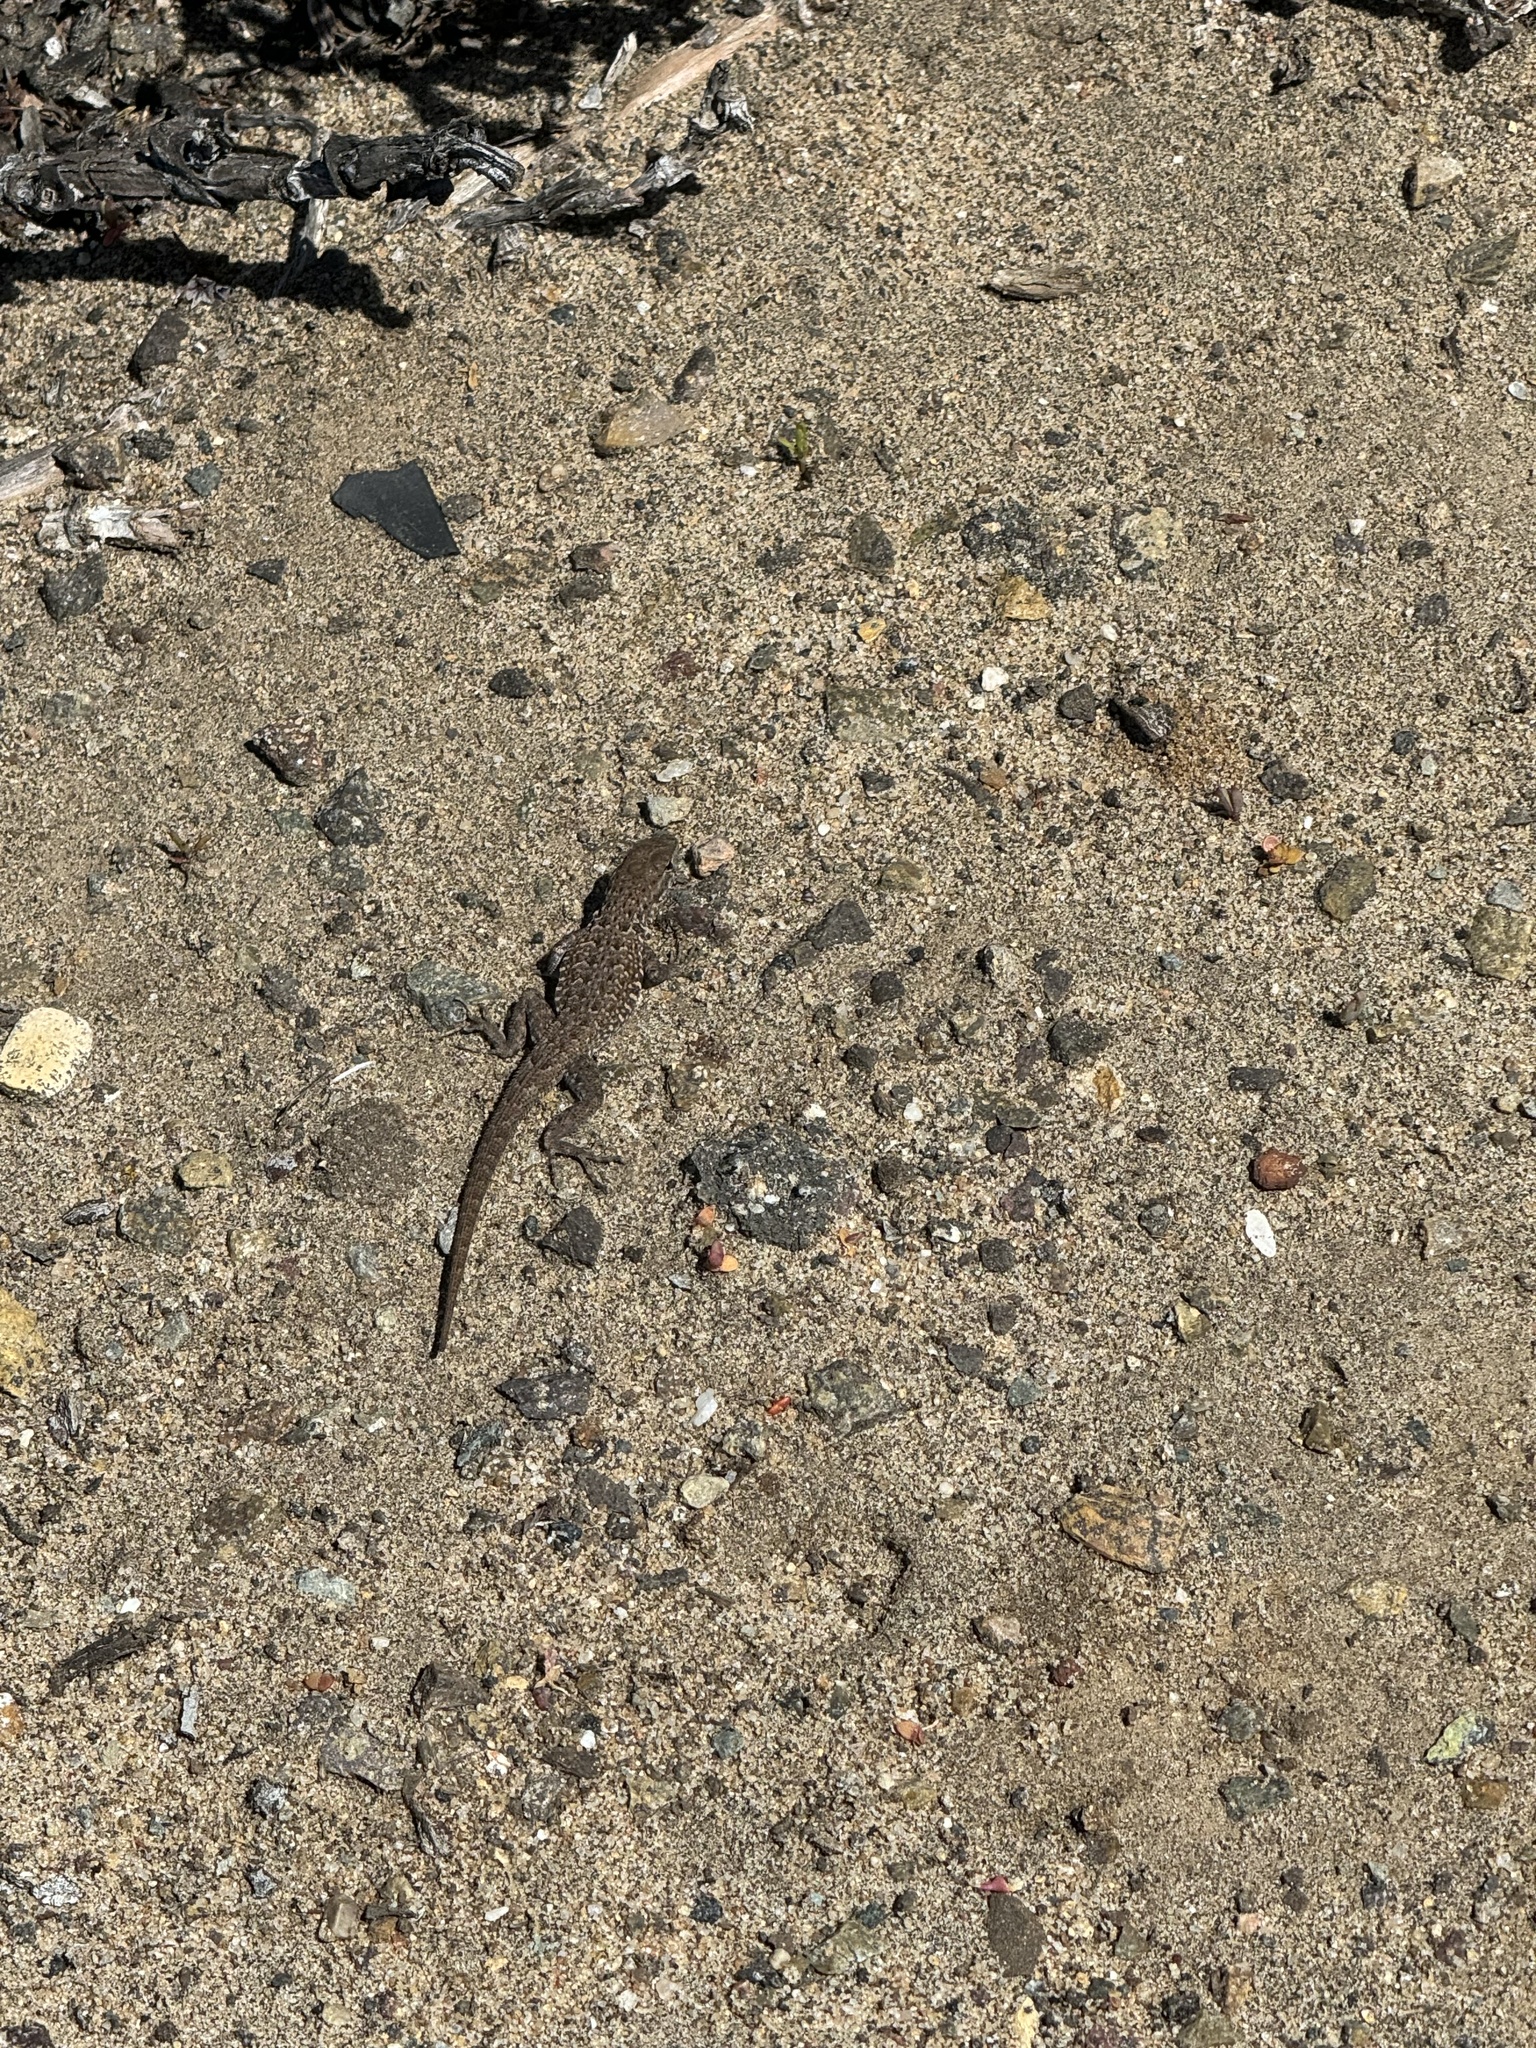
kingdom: Animalia
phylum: Chordata
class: Squamata
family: Phrynosomatidae
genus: Uta
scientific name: Uta stansburiana
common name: Side-blotched lizard
